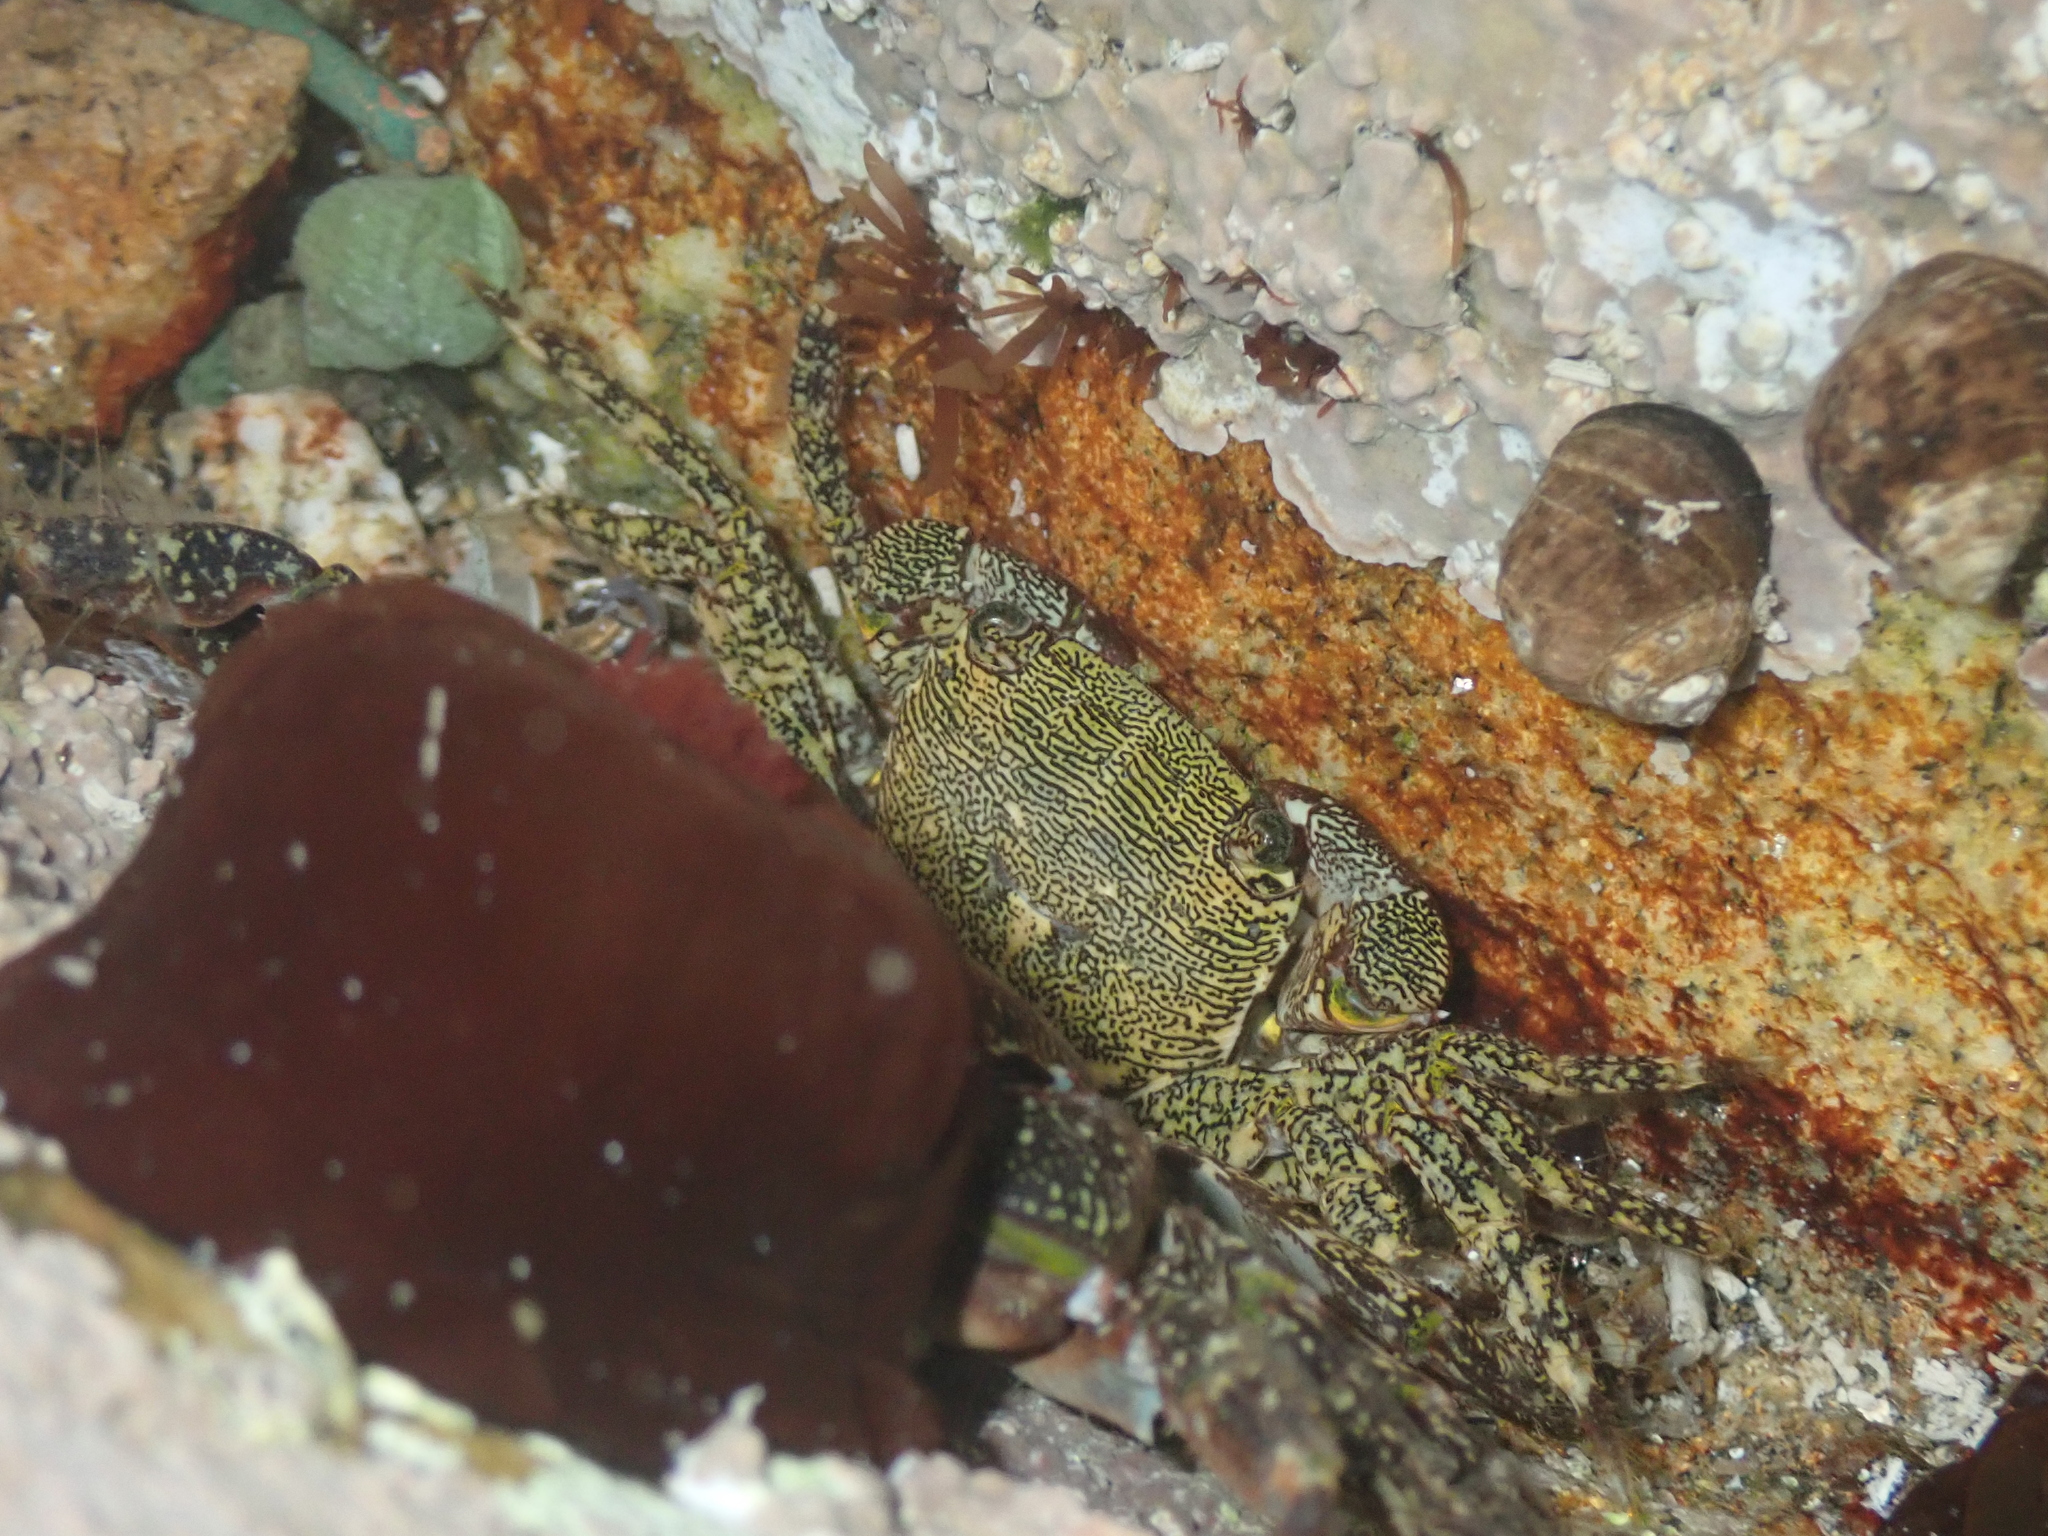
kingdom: Animalia
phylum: Arthropoda
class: Malacostraca
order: Decapoda
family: Grapsidae
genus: Pachygrapsus
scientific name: Pachygrapsus marmoratus
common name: Marbled rock crab
